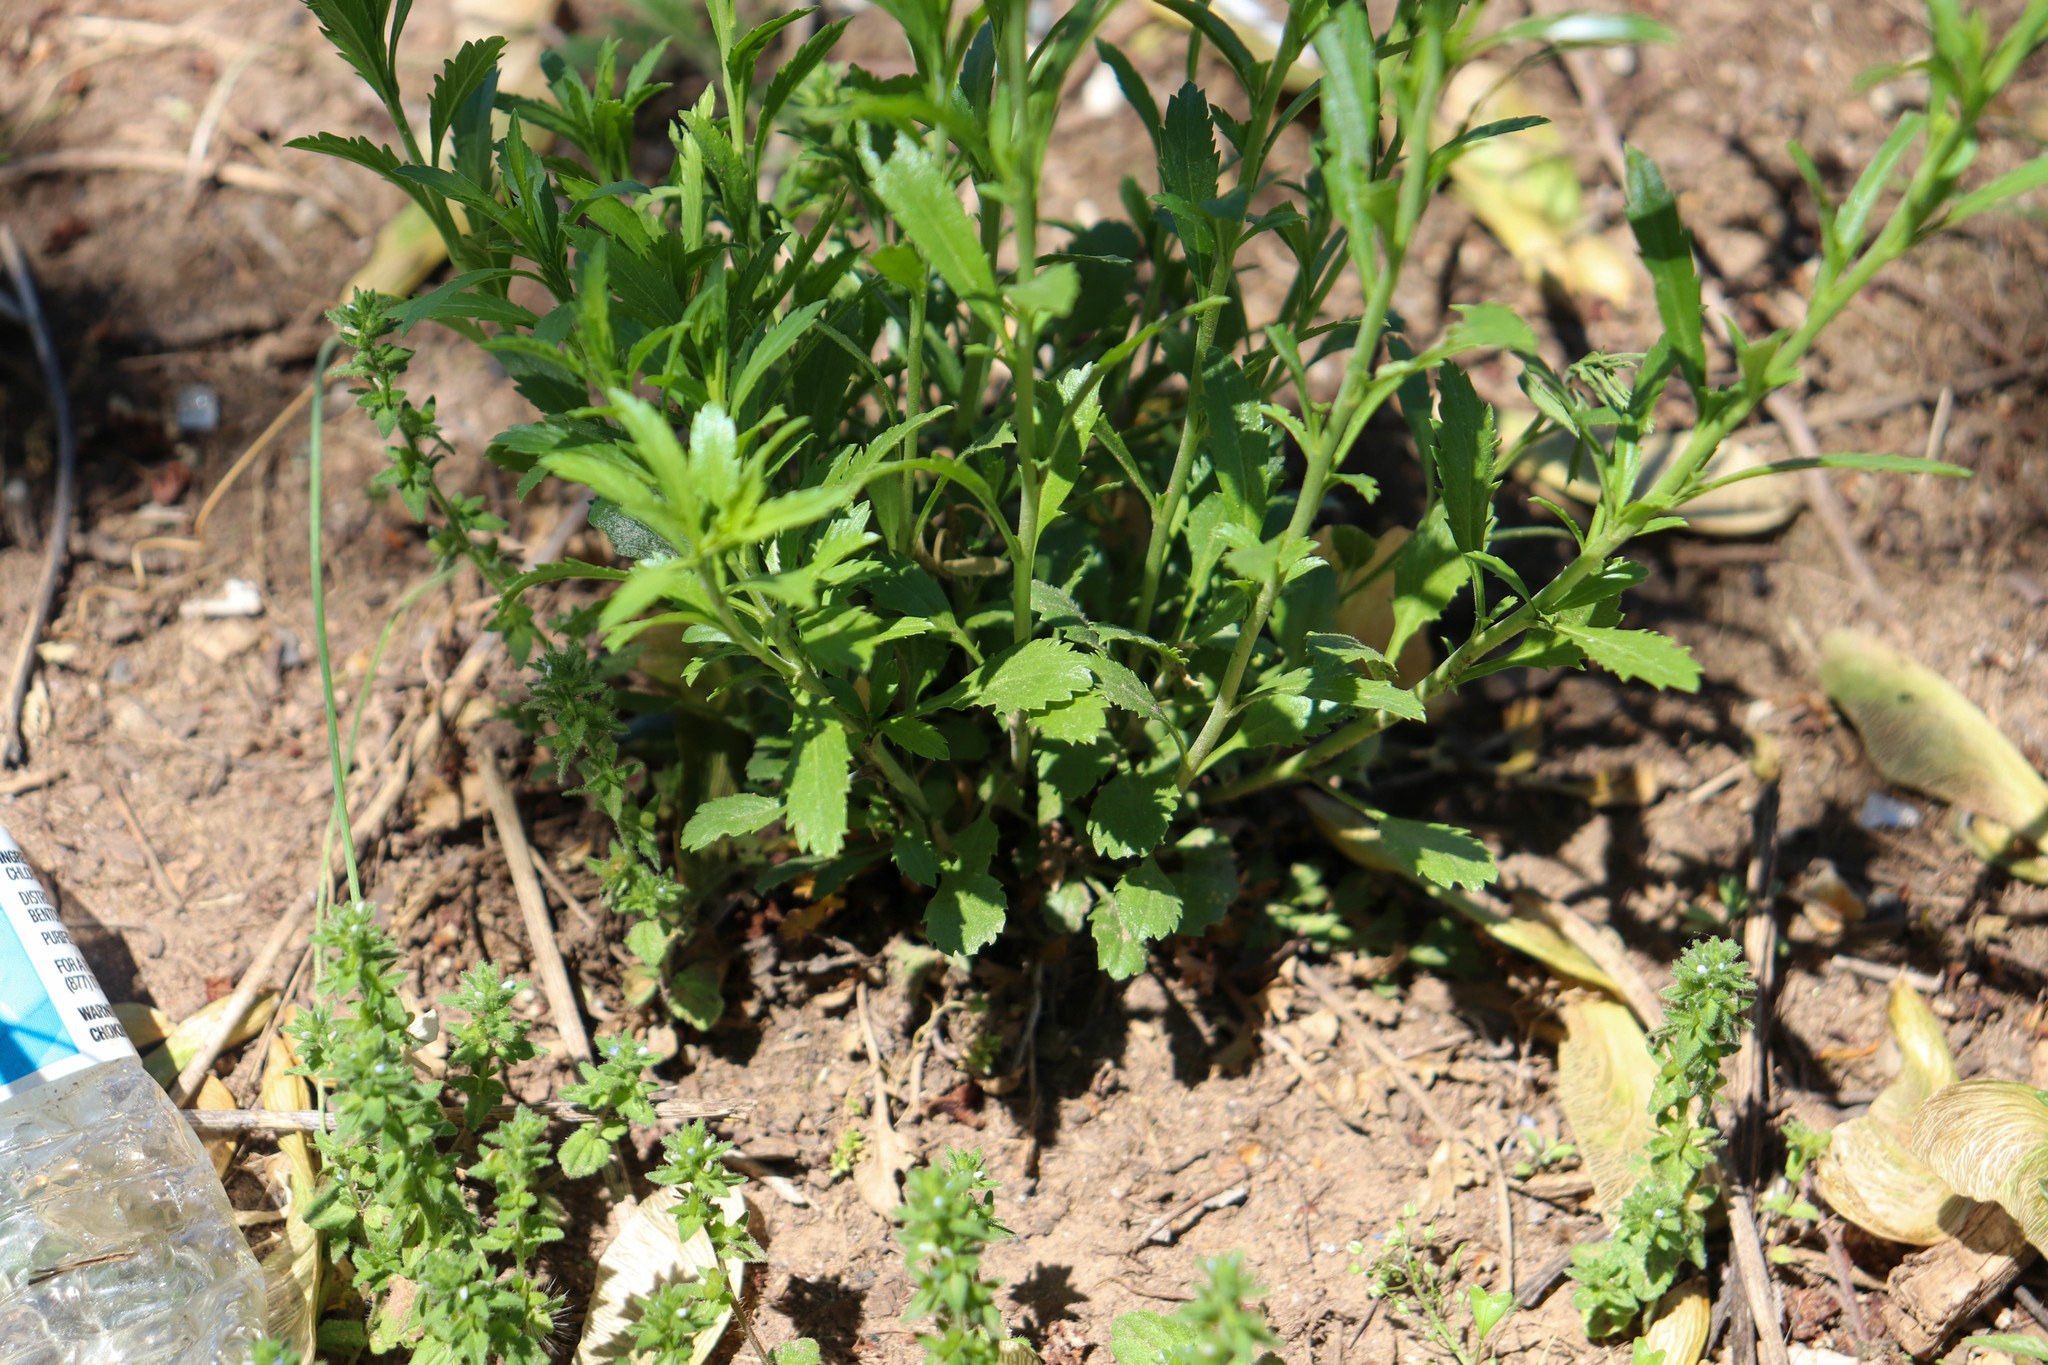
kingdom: Plantae
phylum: Tracheophyta
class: Magnoliopsida
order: Brassicales
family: Brassicaceae
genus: Lepidium
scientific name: Lepidium virginicum
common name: Least pepperwort
